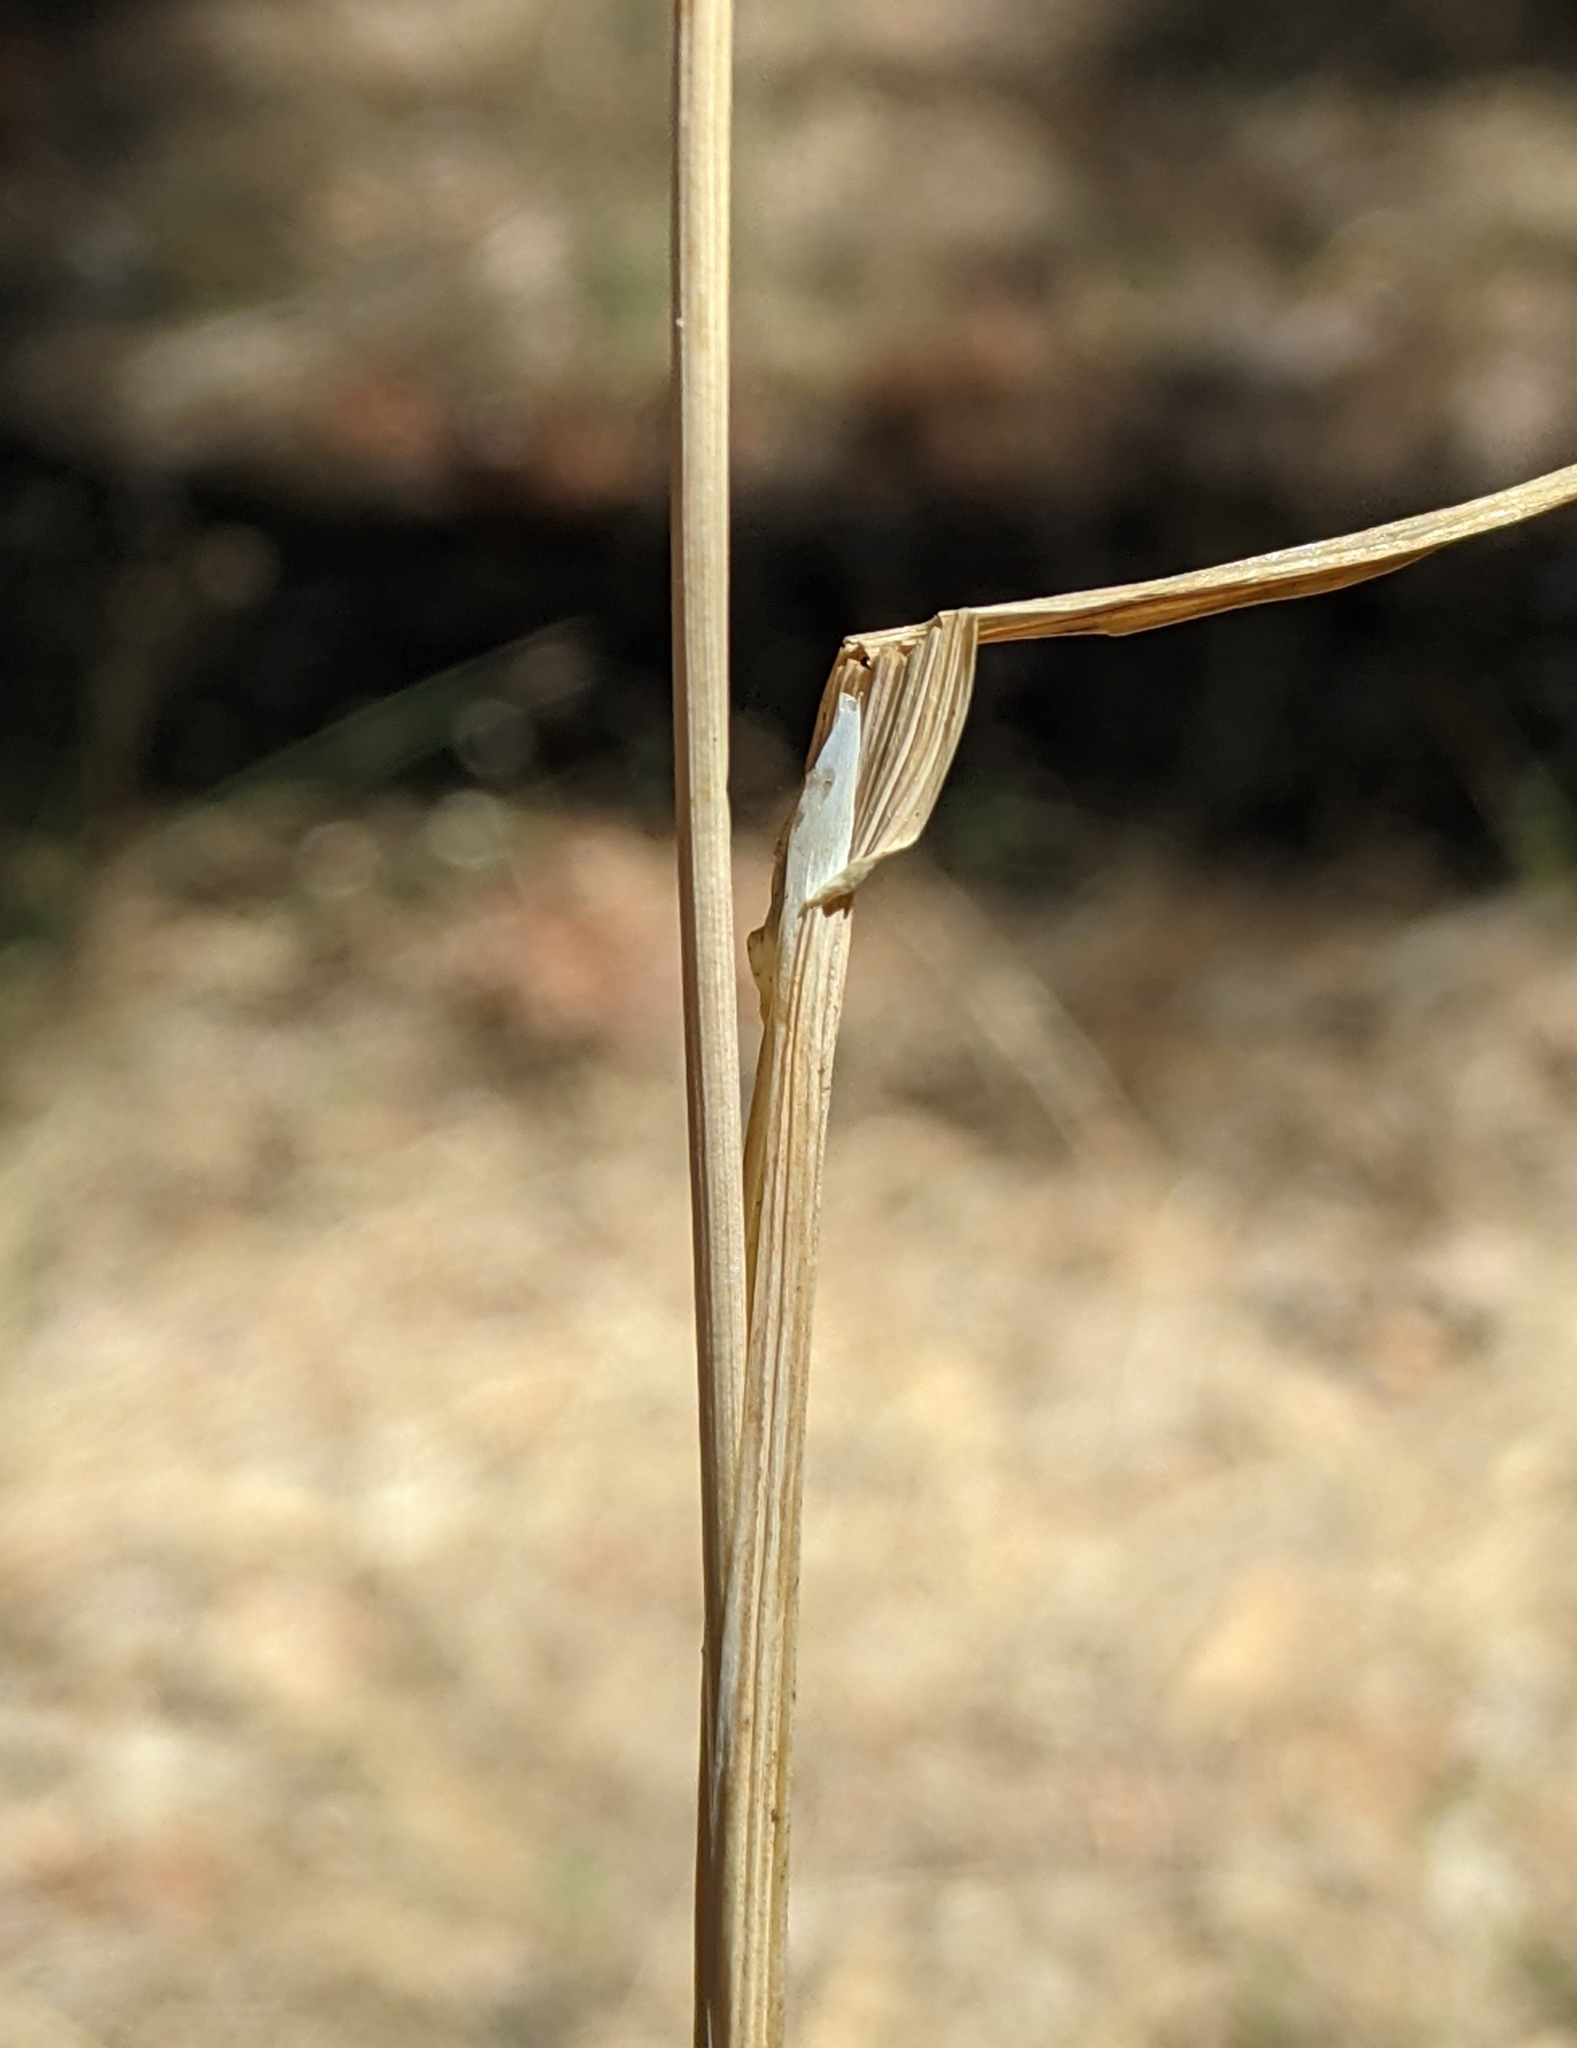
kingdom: Plantae
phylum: Tracheophyta
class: Liliopsida
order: Poales
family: Poaceae
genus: Briza
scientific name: Briza maxima
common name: Big quakinggrass
